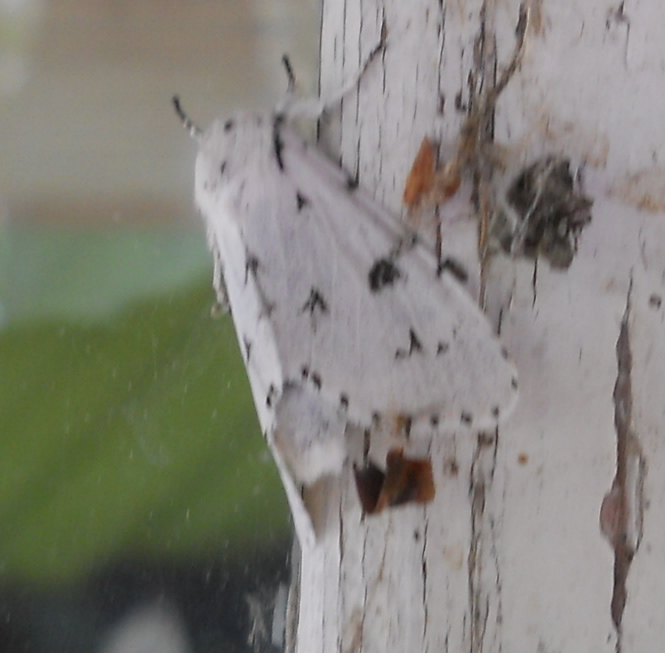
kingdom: Animalia
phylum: Arthropoda
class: Insecta
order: Lepidoptera
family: Noctuidae
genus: Acronicta
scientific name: Acronicta leporina
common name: Miller
